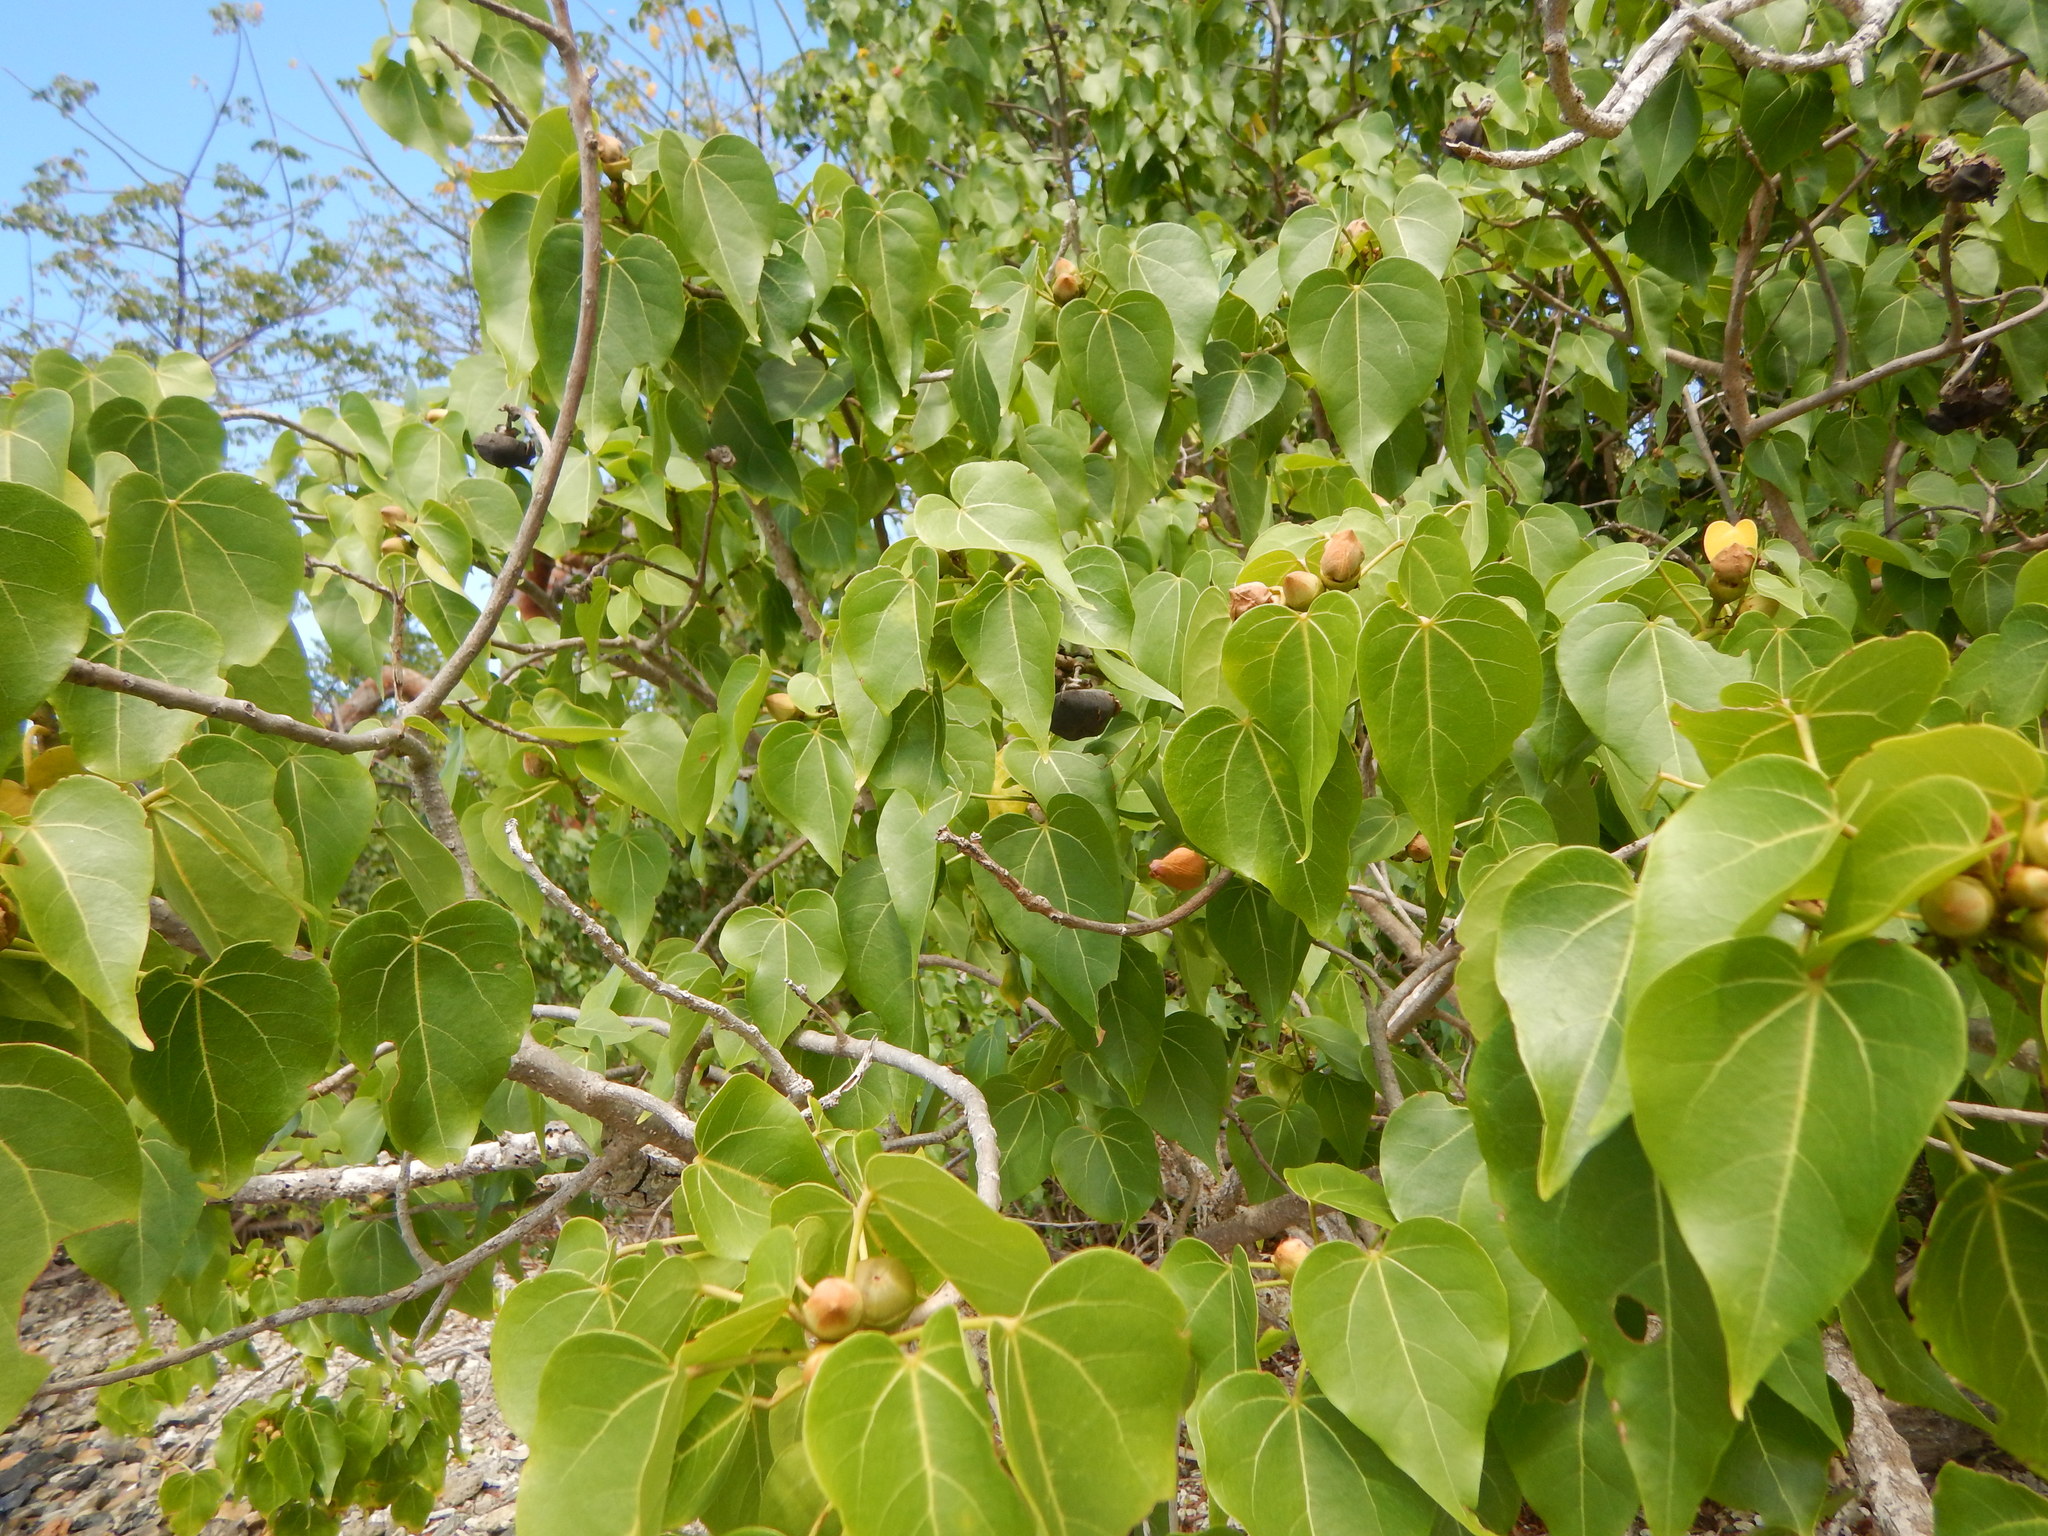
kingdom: Plantae
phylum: Tracheophyta
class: Magnoliopsida
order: Malvales
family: Malvaceae
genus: Thespesia
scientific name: Thespesia populnea
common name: Seaside mahoe
